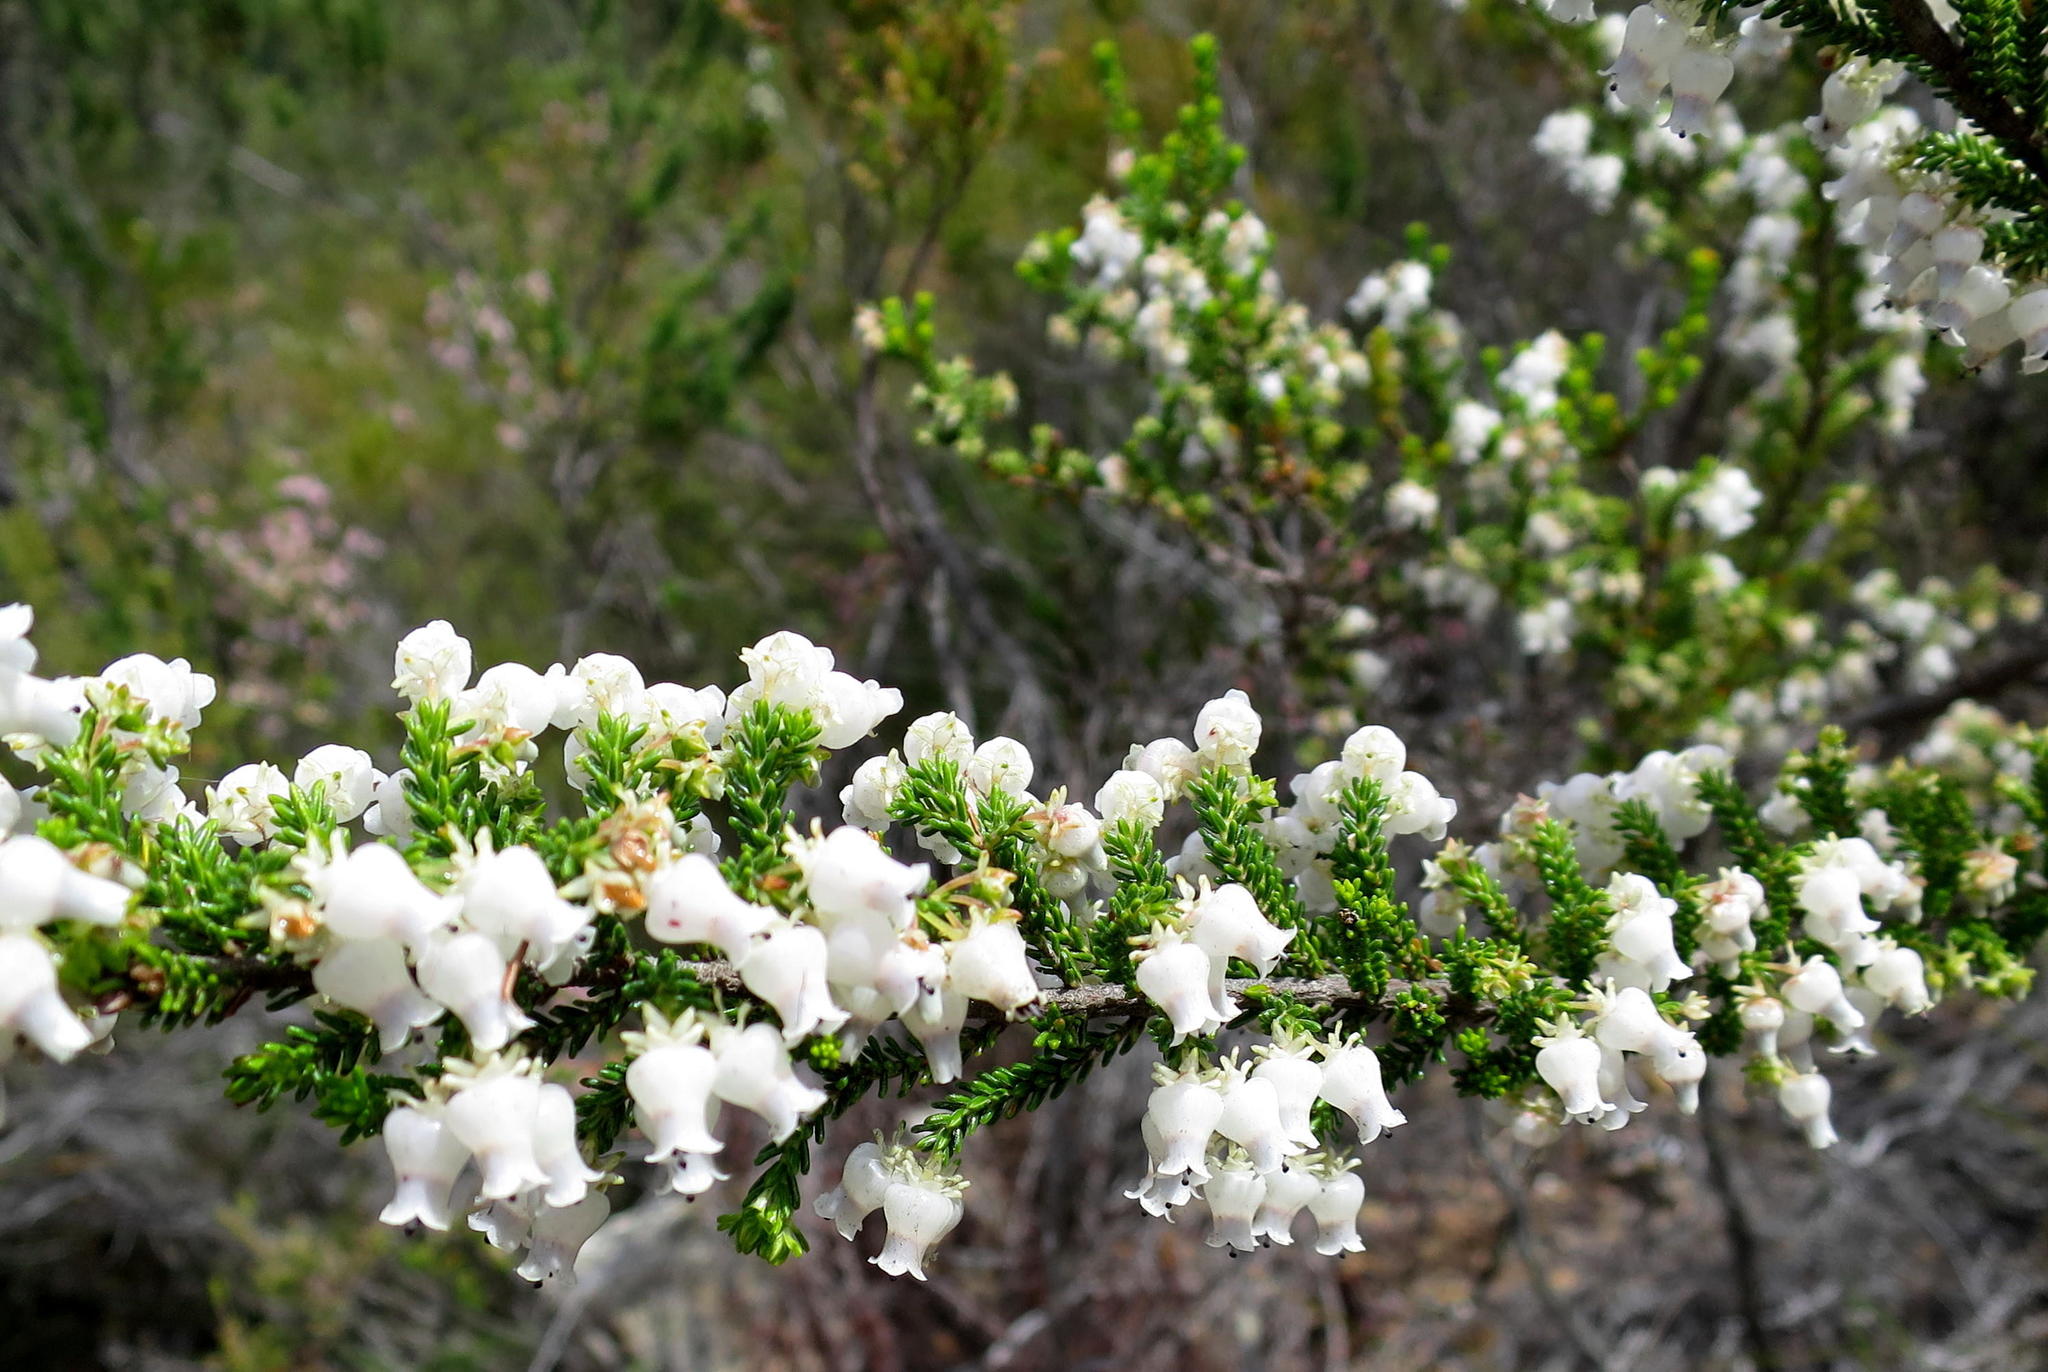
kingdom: Plantae
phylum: Tracheophyta
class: Magnoliopsida
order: Ericales
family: Ericaceae
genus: Erica
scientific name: Erica glomiflora
